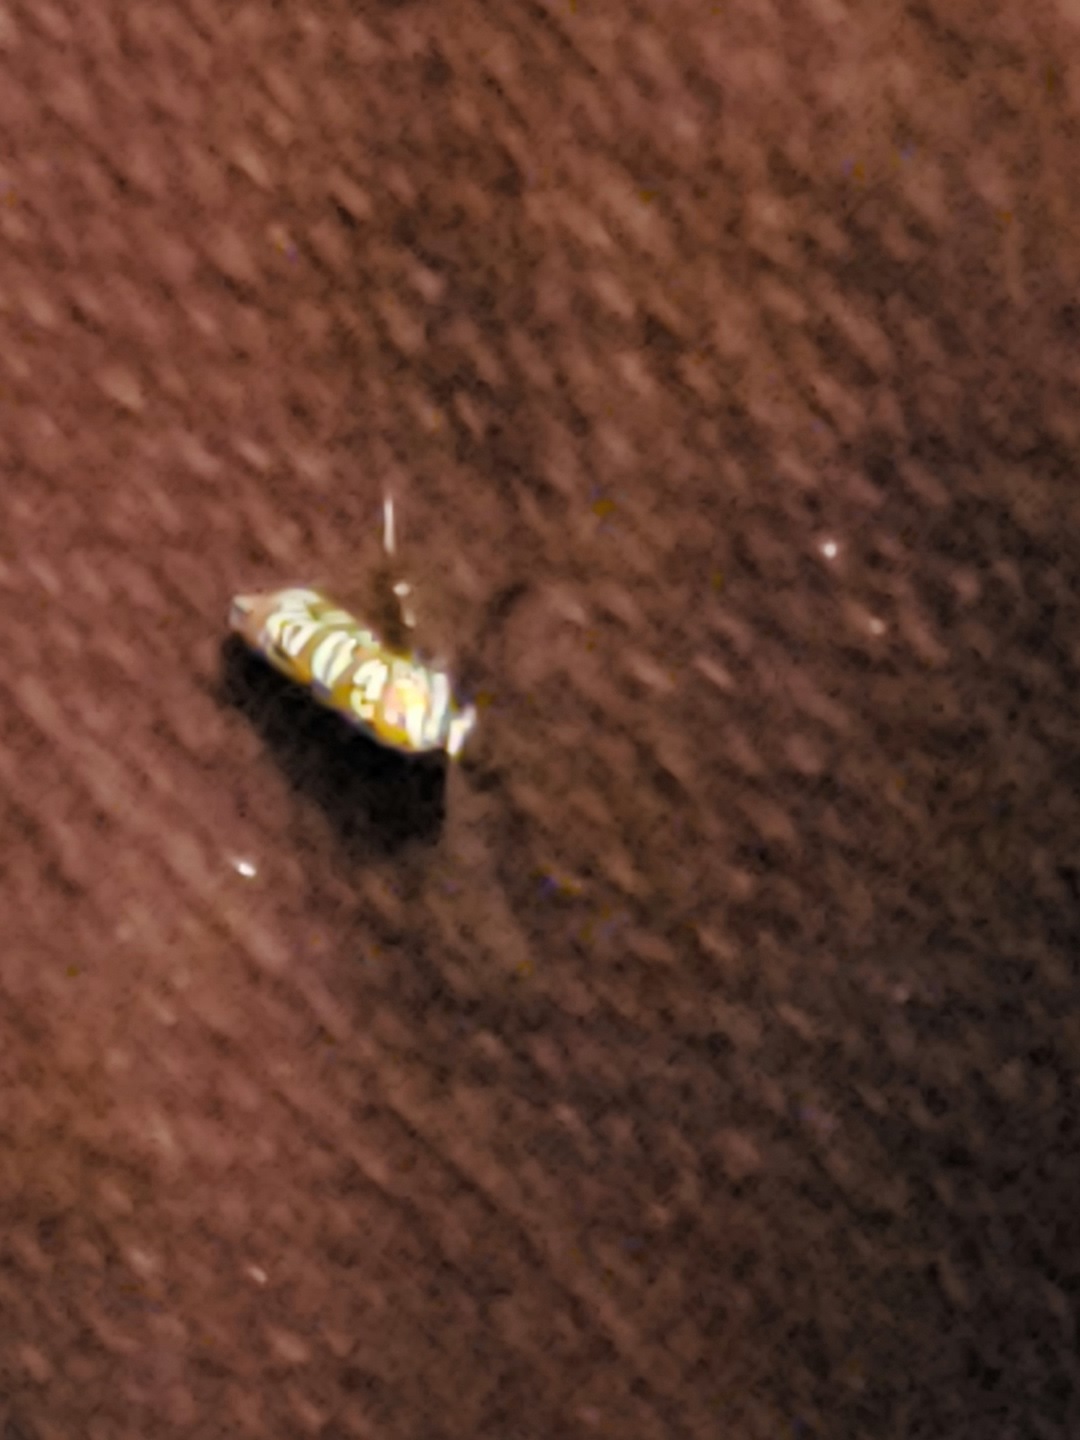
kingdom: Animalia
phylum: Arthropoda
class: Insecta
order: Lepidoptera
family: Attevidae
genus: Atteva
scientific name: Atteva punctella
